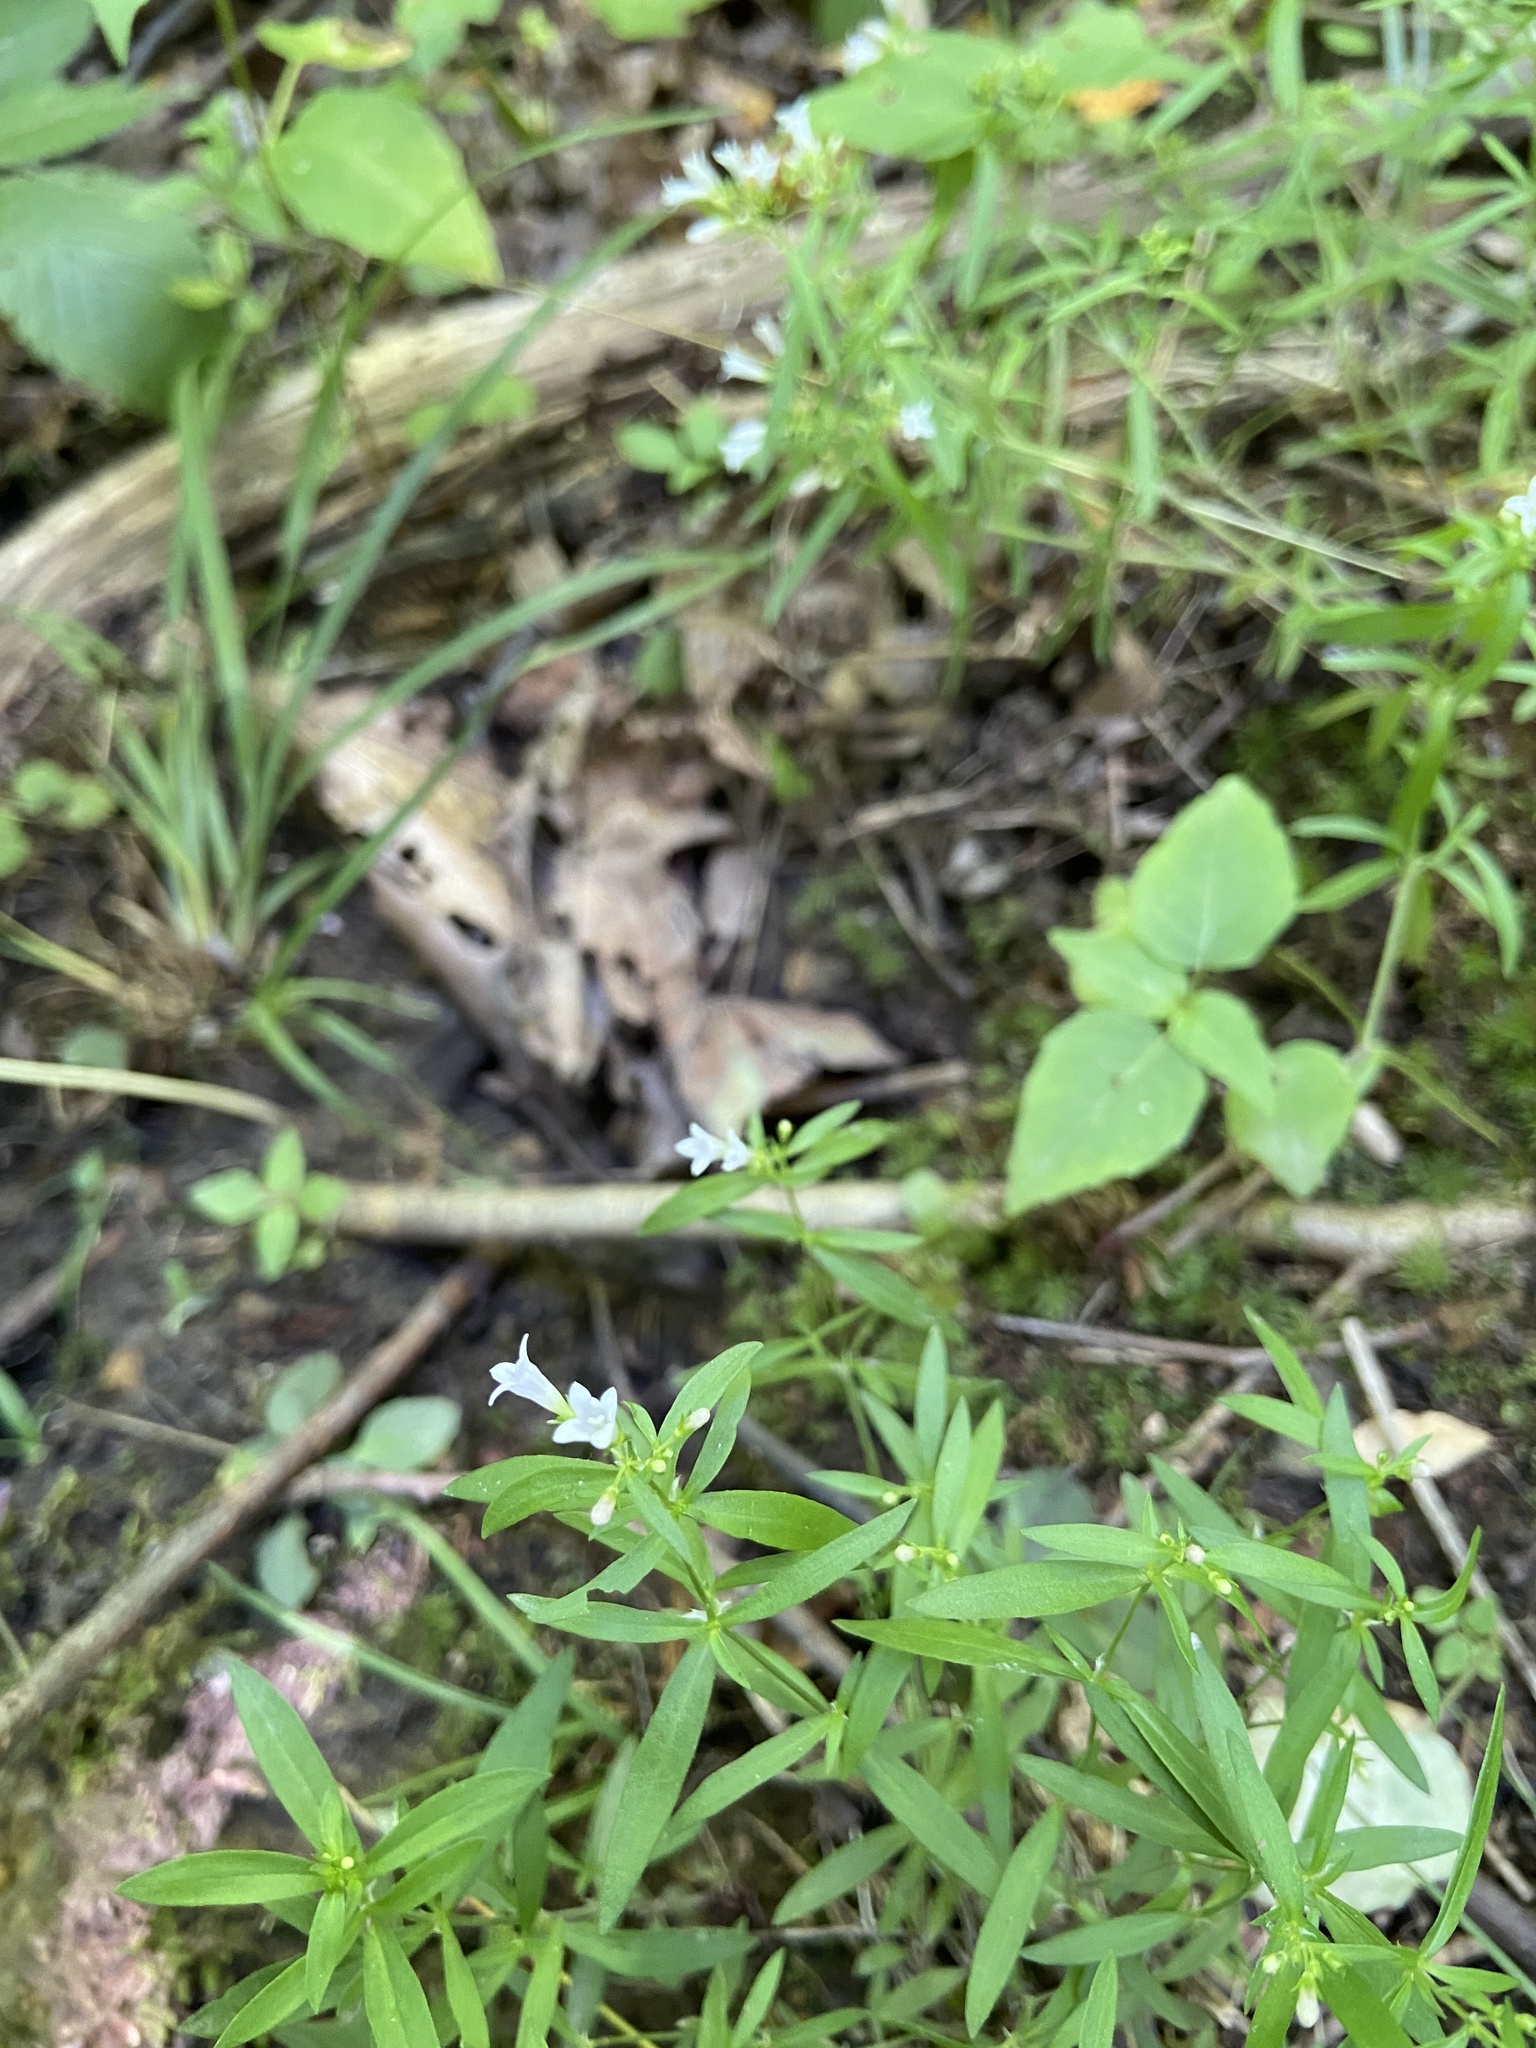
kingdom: Plantae
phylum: Tracheophyta
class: Magnoliopsida
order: Gentianales
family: Rubiaceae
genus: Houstonia
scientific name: Houstonia longifolia
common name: Long-leaved bluets
